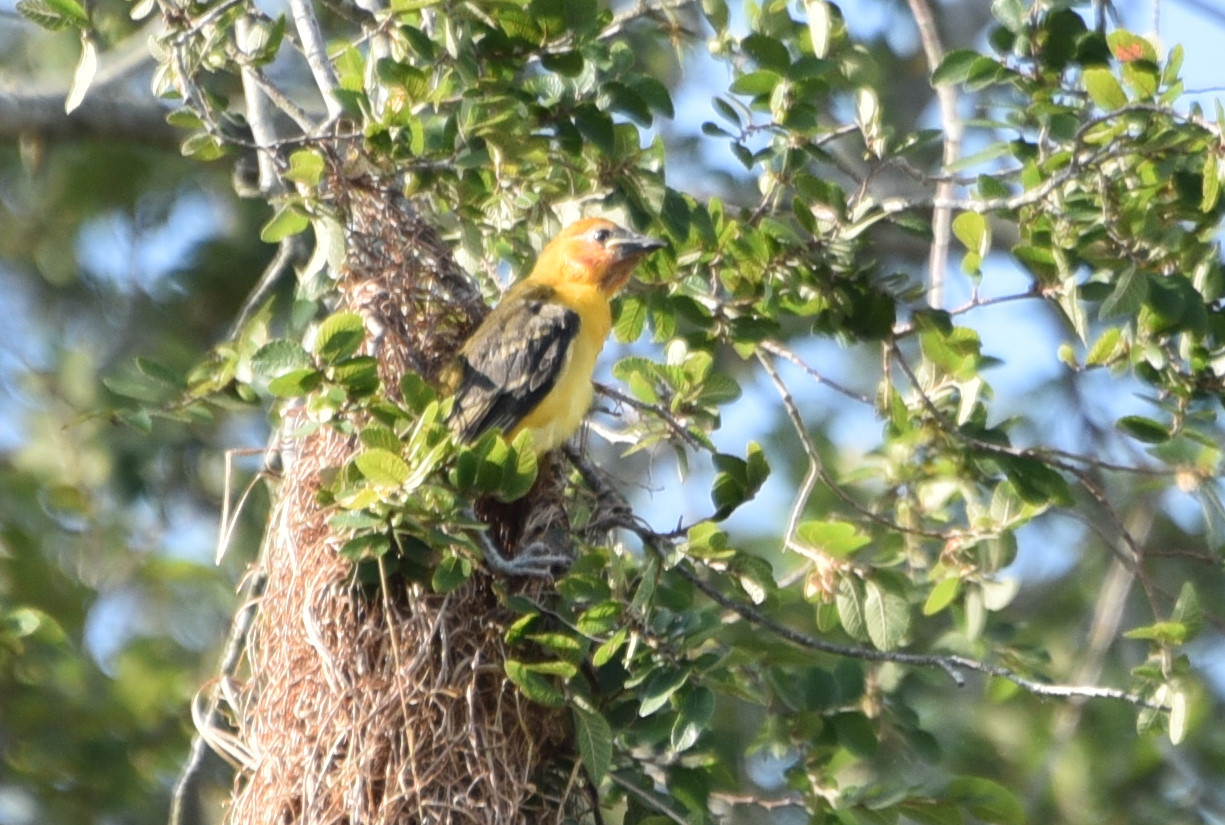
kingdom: Animalia
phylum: Chordata
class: Aves
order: Passeriformes
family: Icteridae
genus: Icterus
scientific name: Icterus gularis
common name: Altamira oriole
